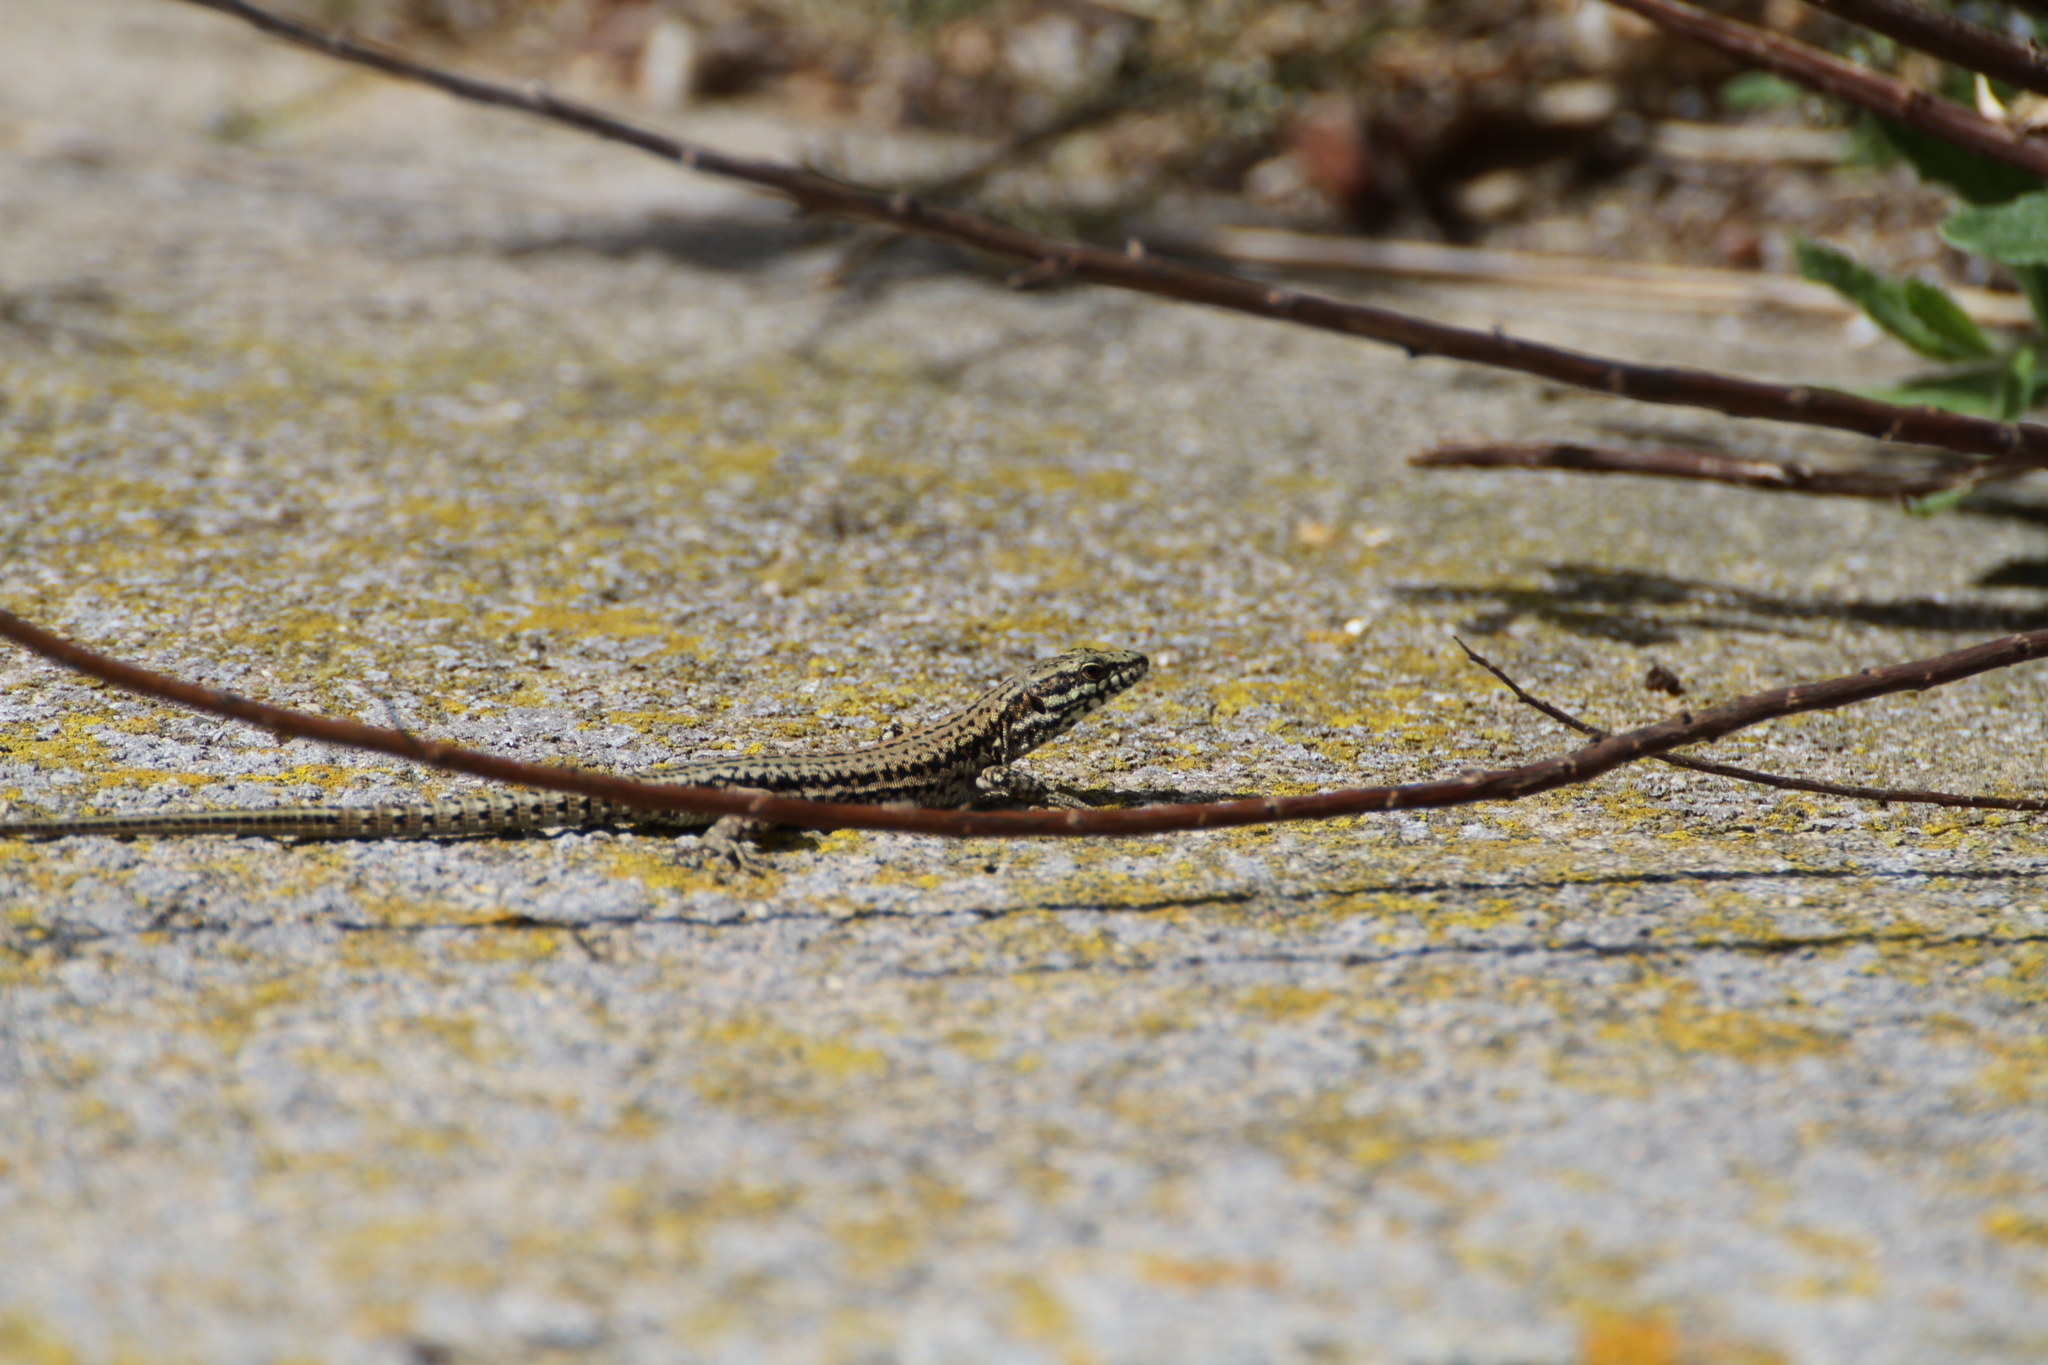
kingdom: Animalia
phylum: Chordata
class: Squamata
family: Lacertidae
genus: Podarcis
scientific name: Podarcis muralis
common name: Common wall lizard
